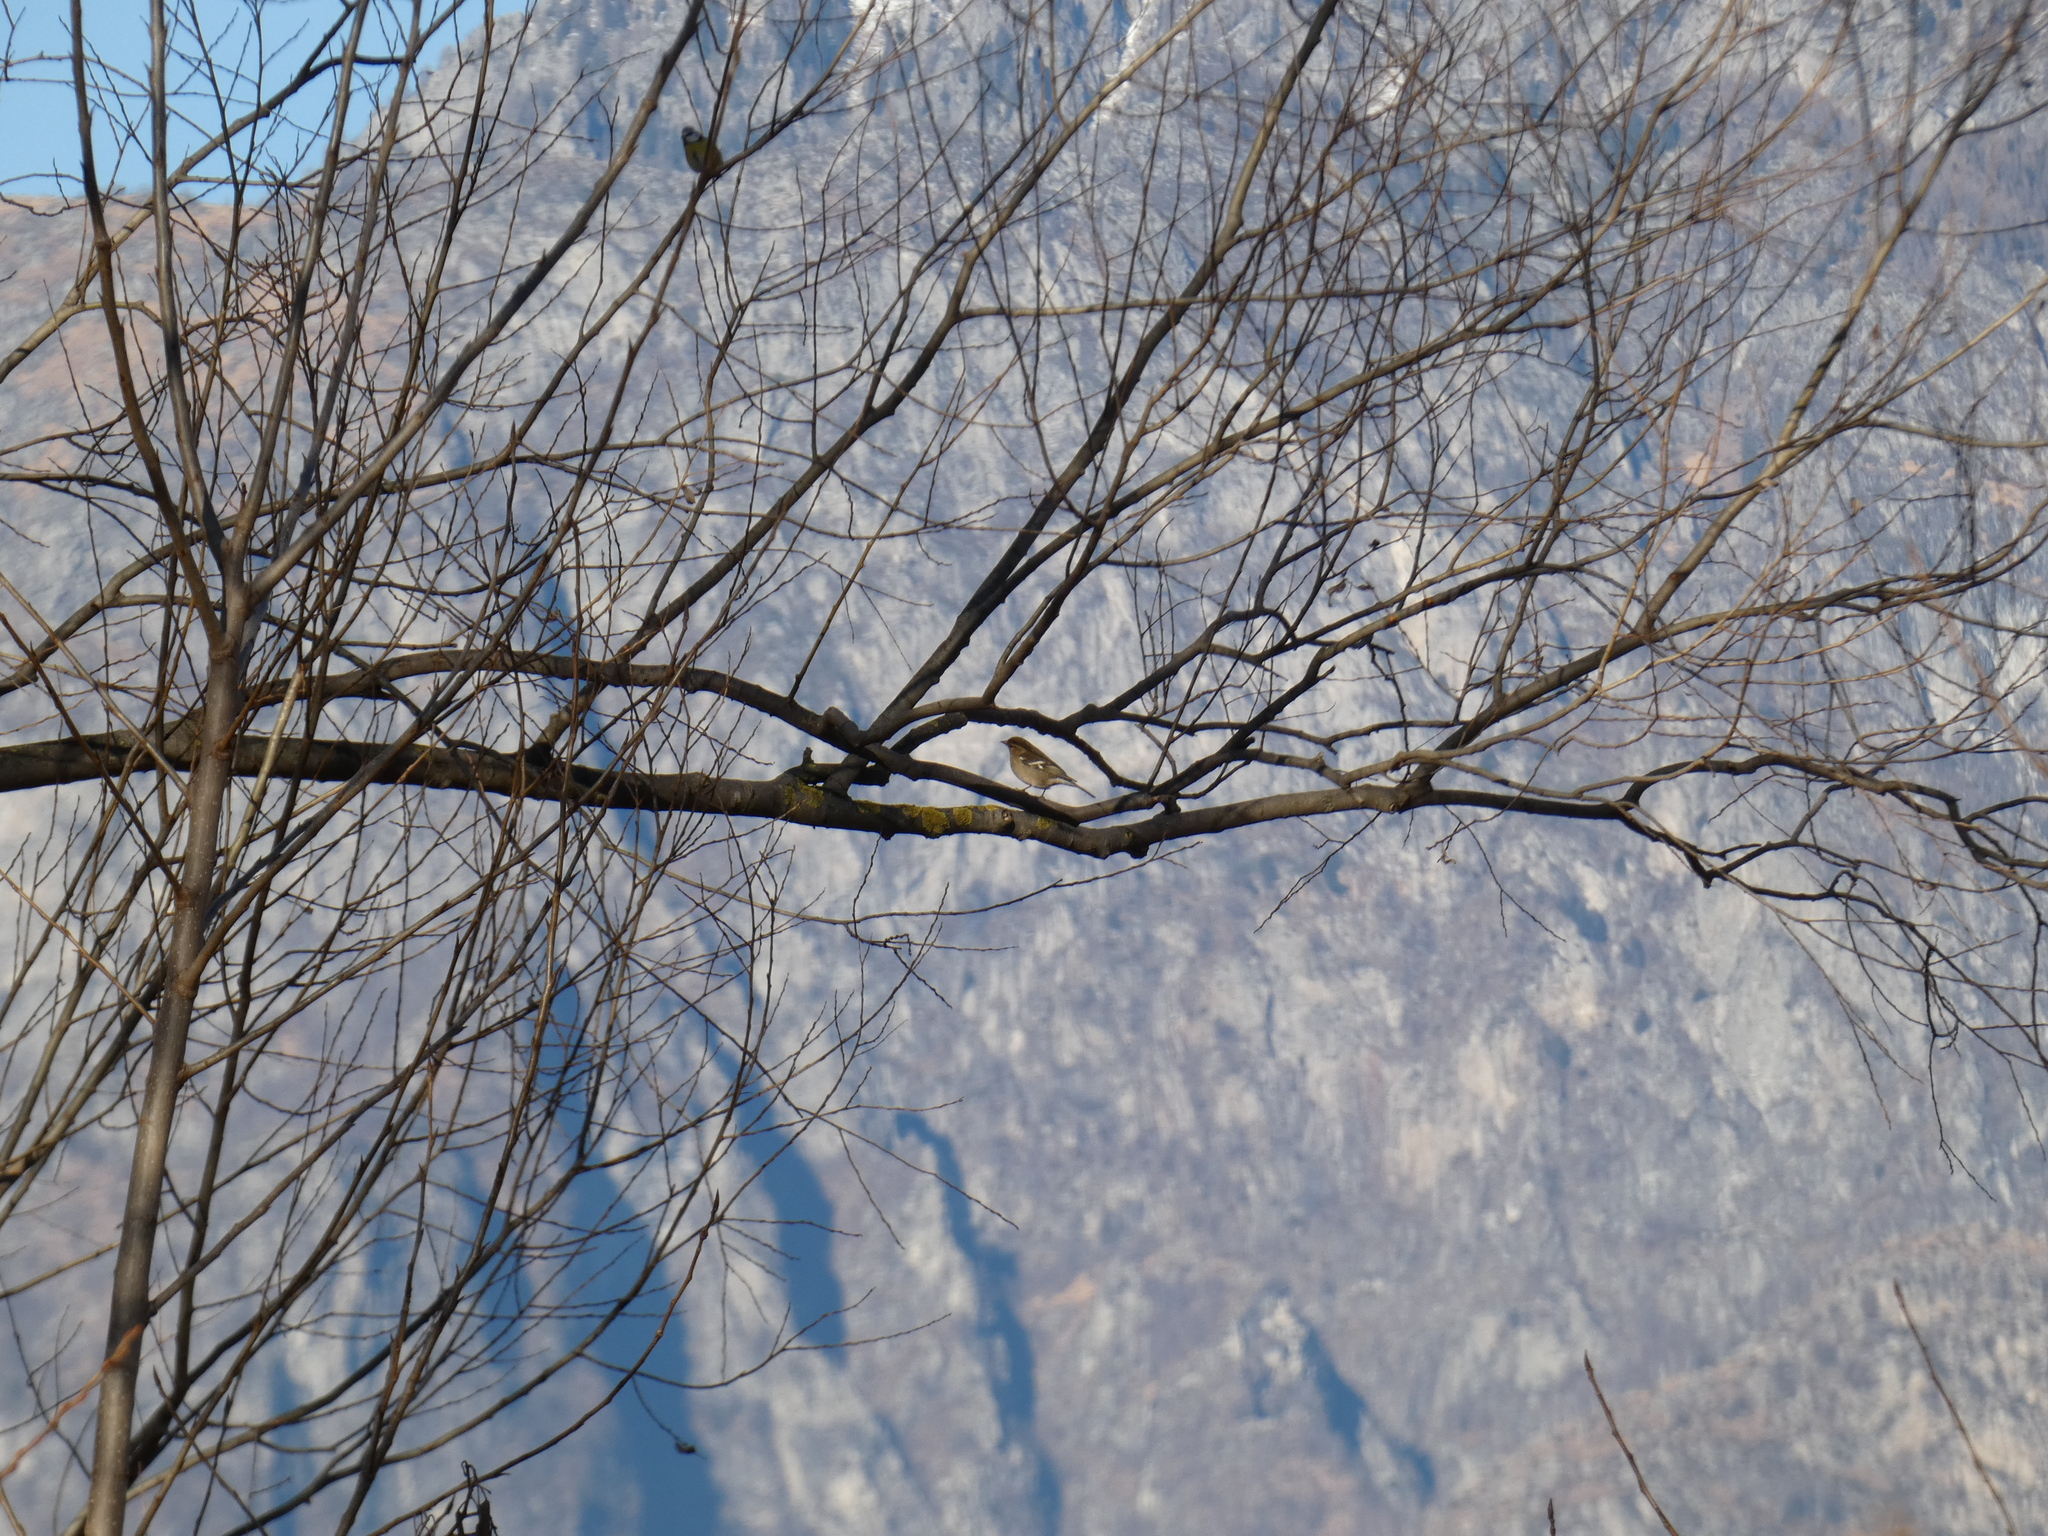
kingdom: Animalia
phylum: Chordata
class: Aves
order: Passeriformes
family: Fringillidae
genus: Fringilla
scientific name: Fringilla coelebs
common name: Common chaffinch
